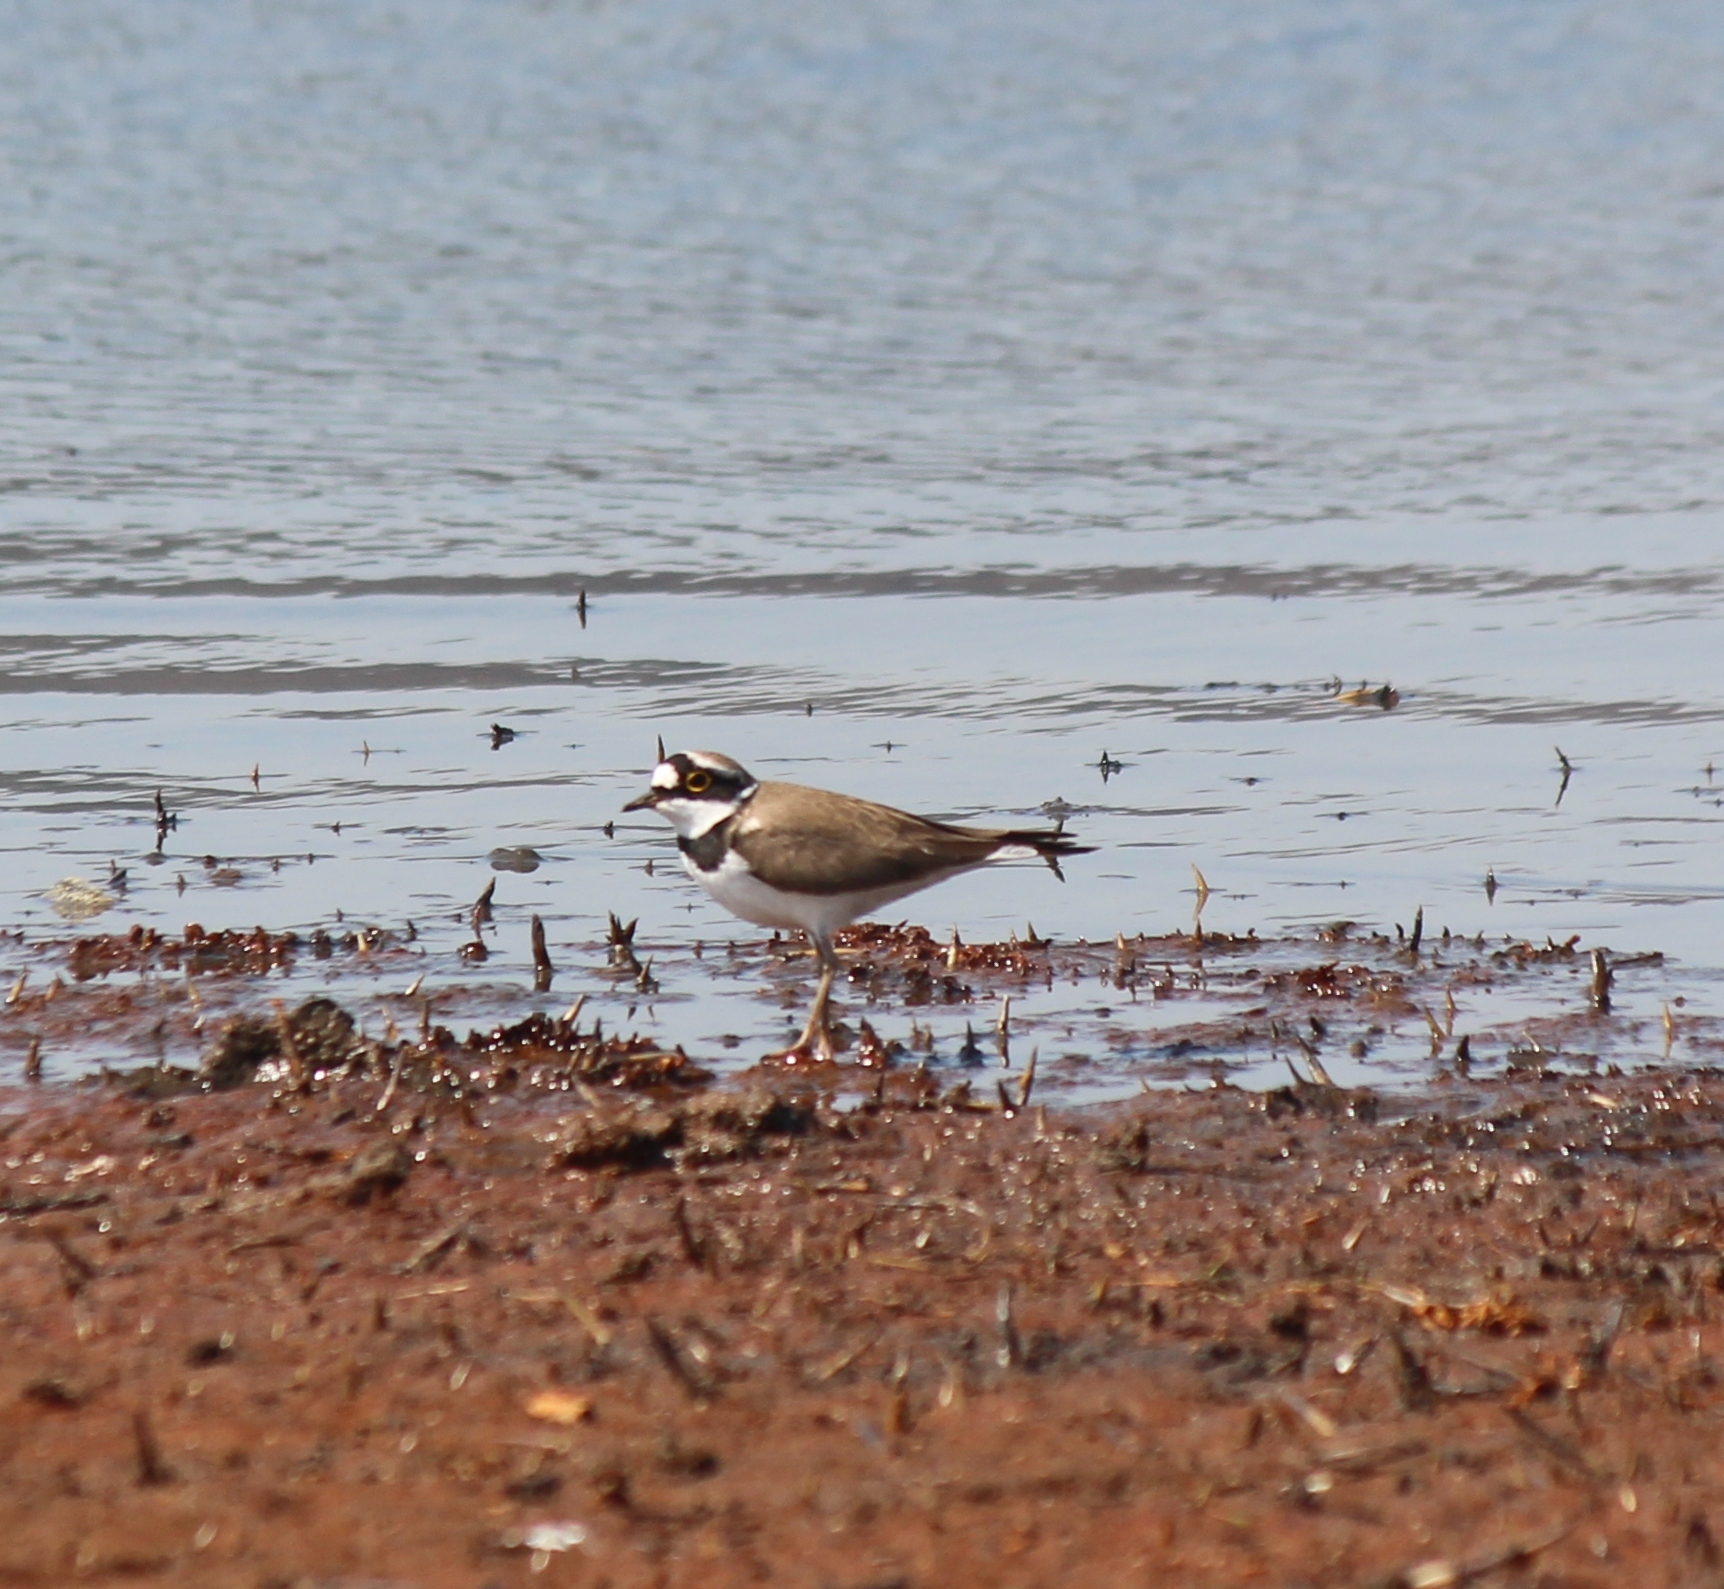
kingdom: Animalia
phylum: Chordata
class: Aves
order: Charadriiformes
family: Charadriidae
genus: Charadrius
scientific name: Charadrius dubius
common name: Little ringed plover
